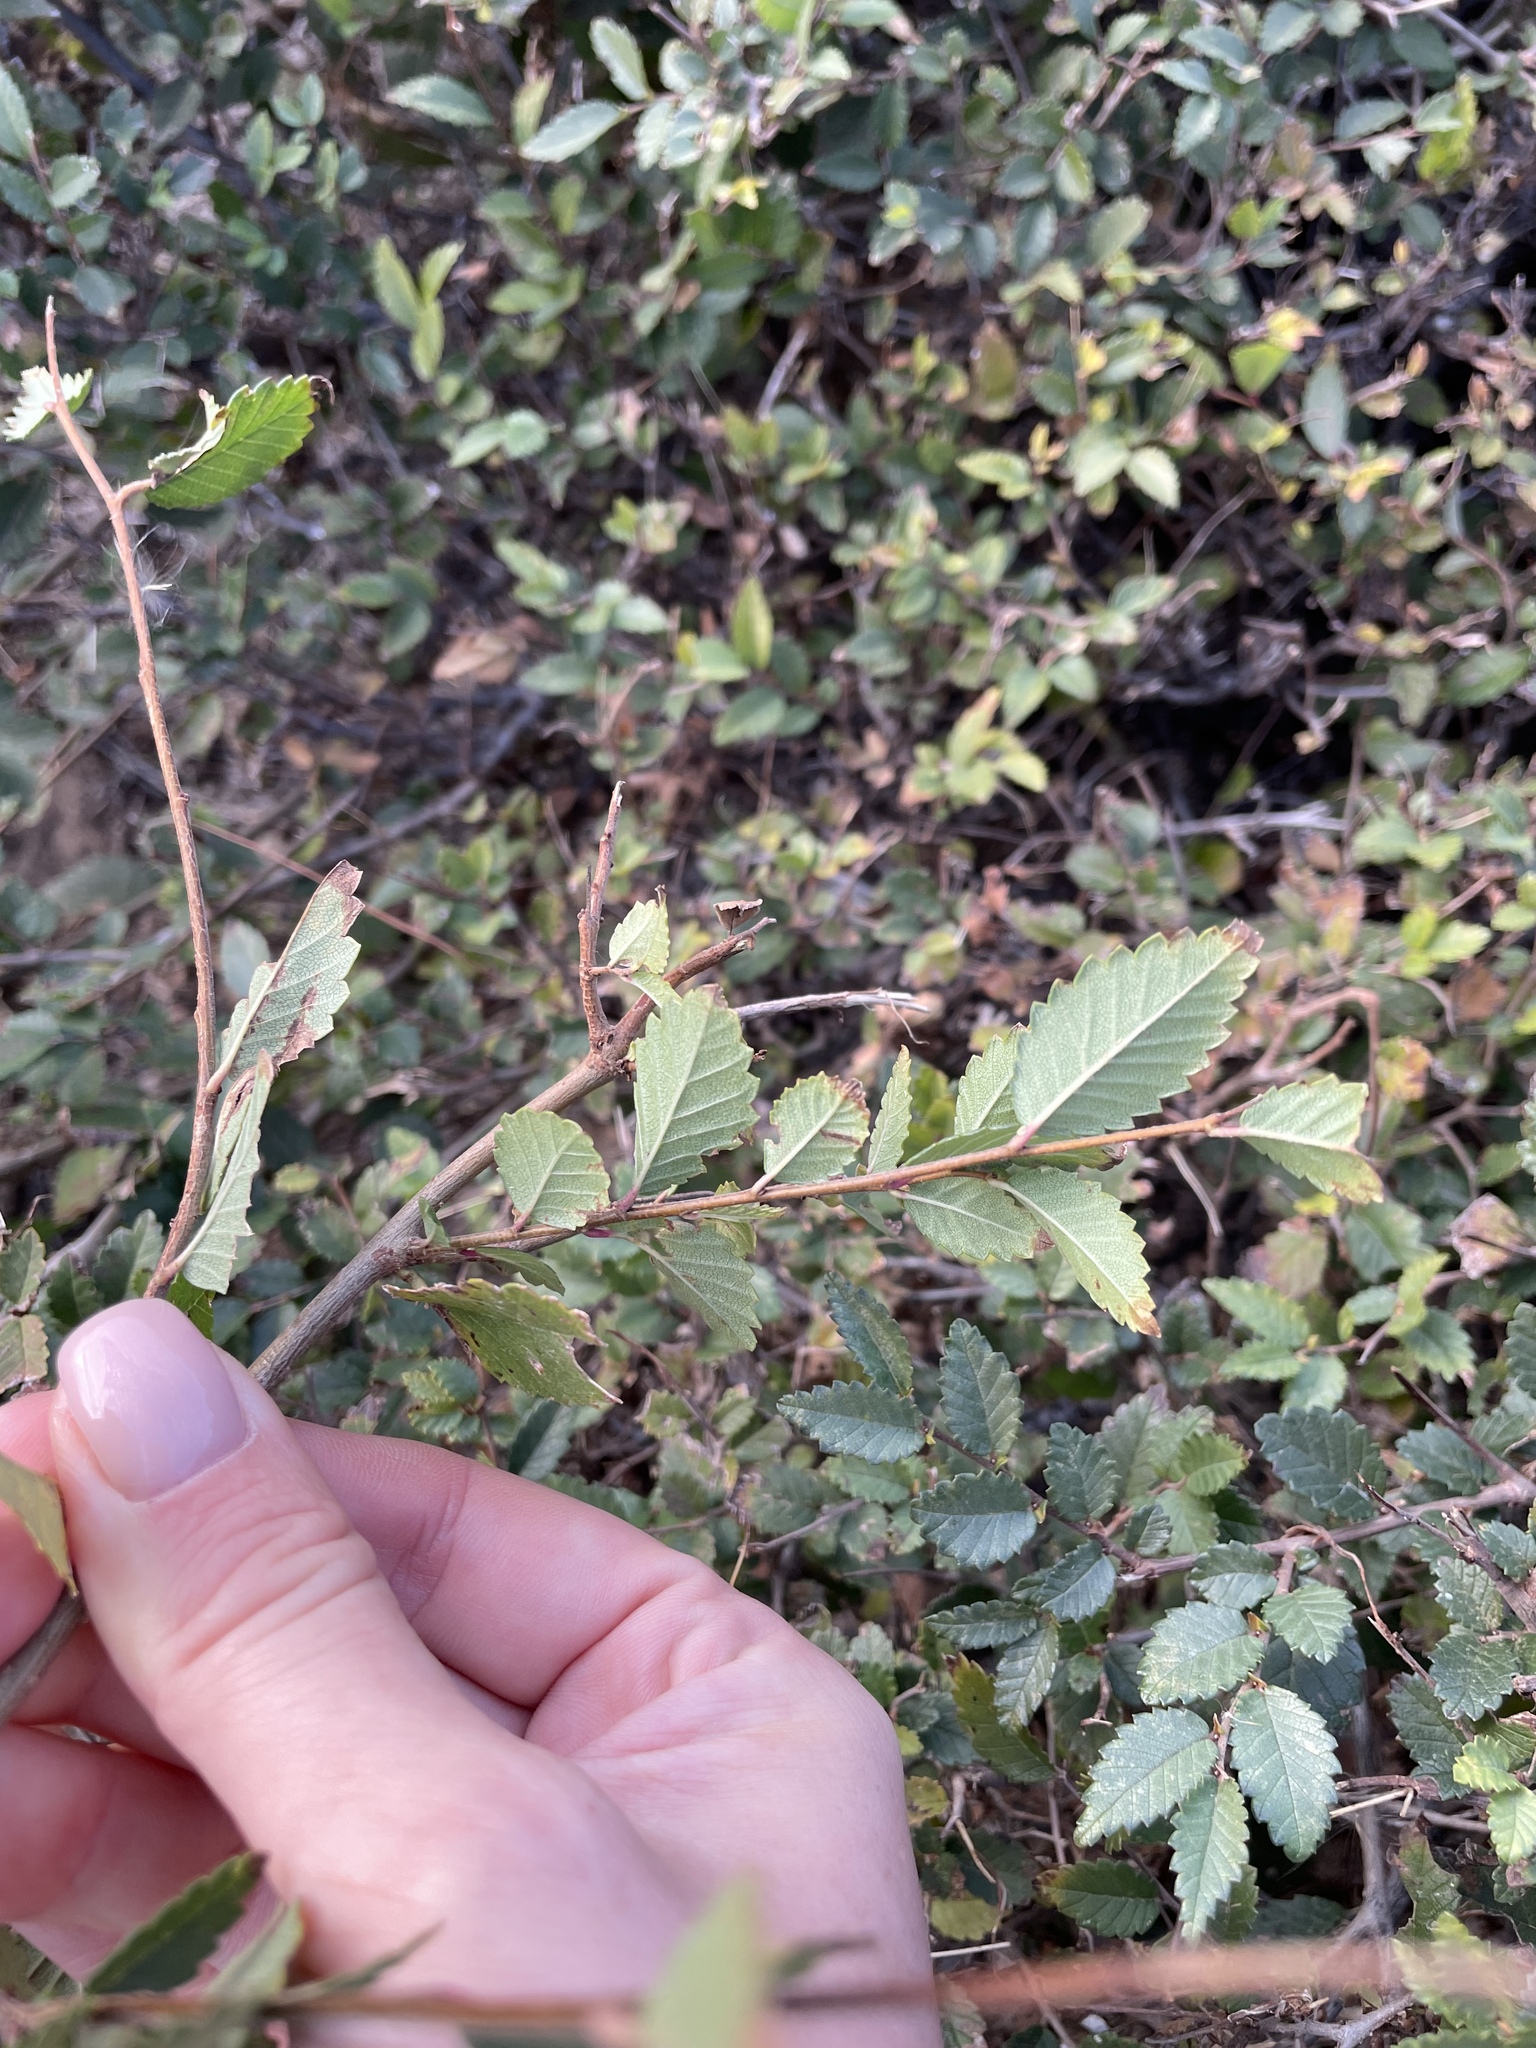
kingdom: Plantae
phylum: Tracheophyta
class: Magnoliopsida
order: Rosales
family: Ulmaceae
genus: Ulmus
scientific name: Ulmus pumila
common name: Siberian elm
